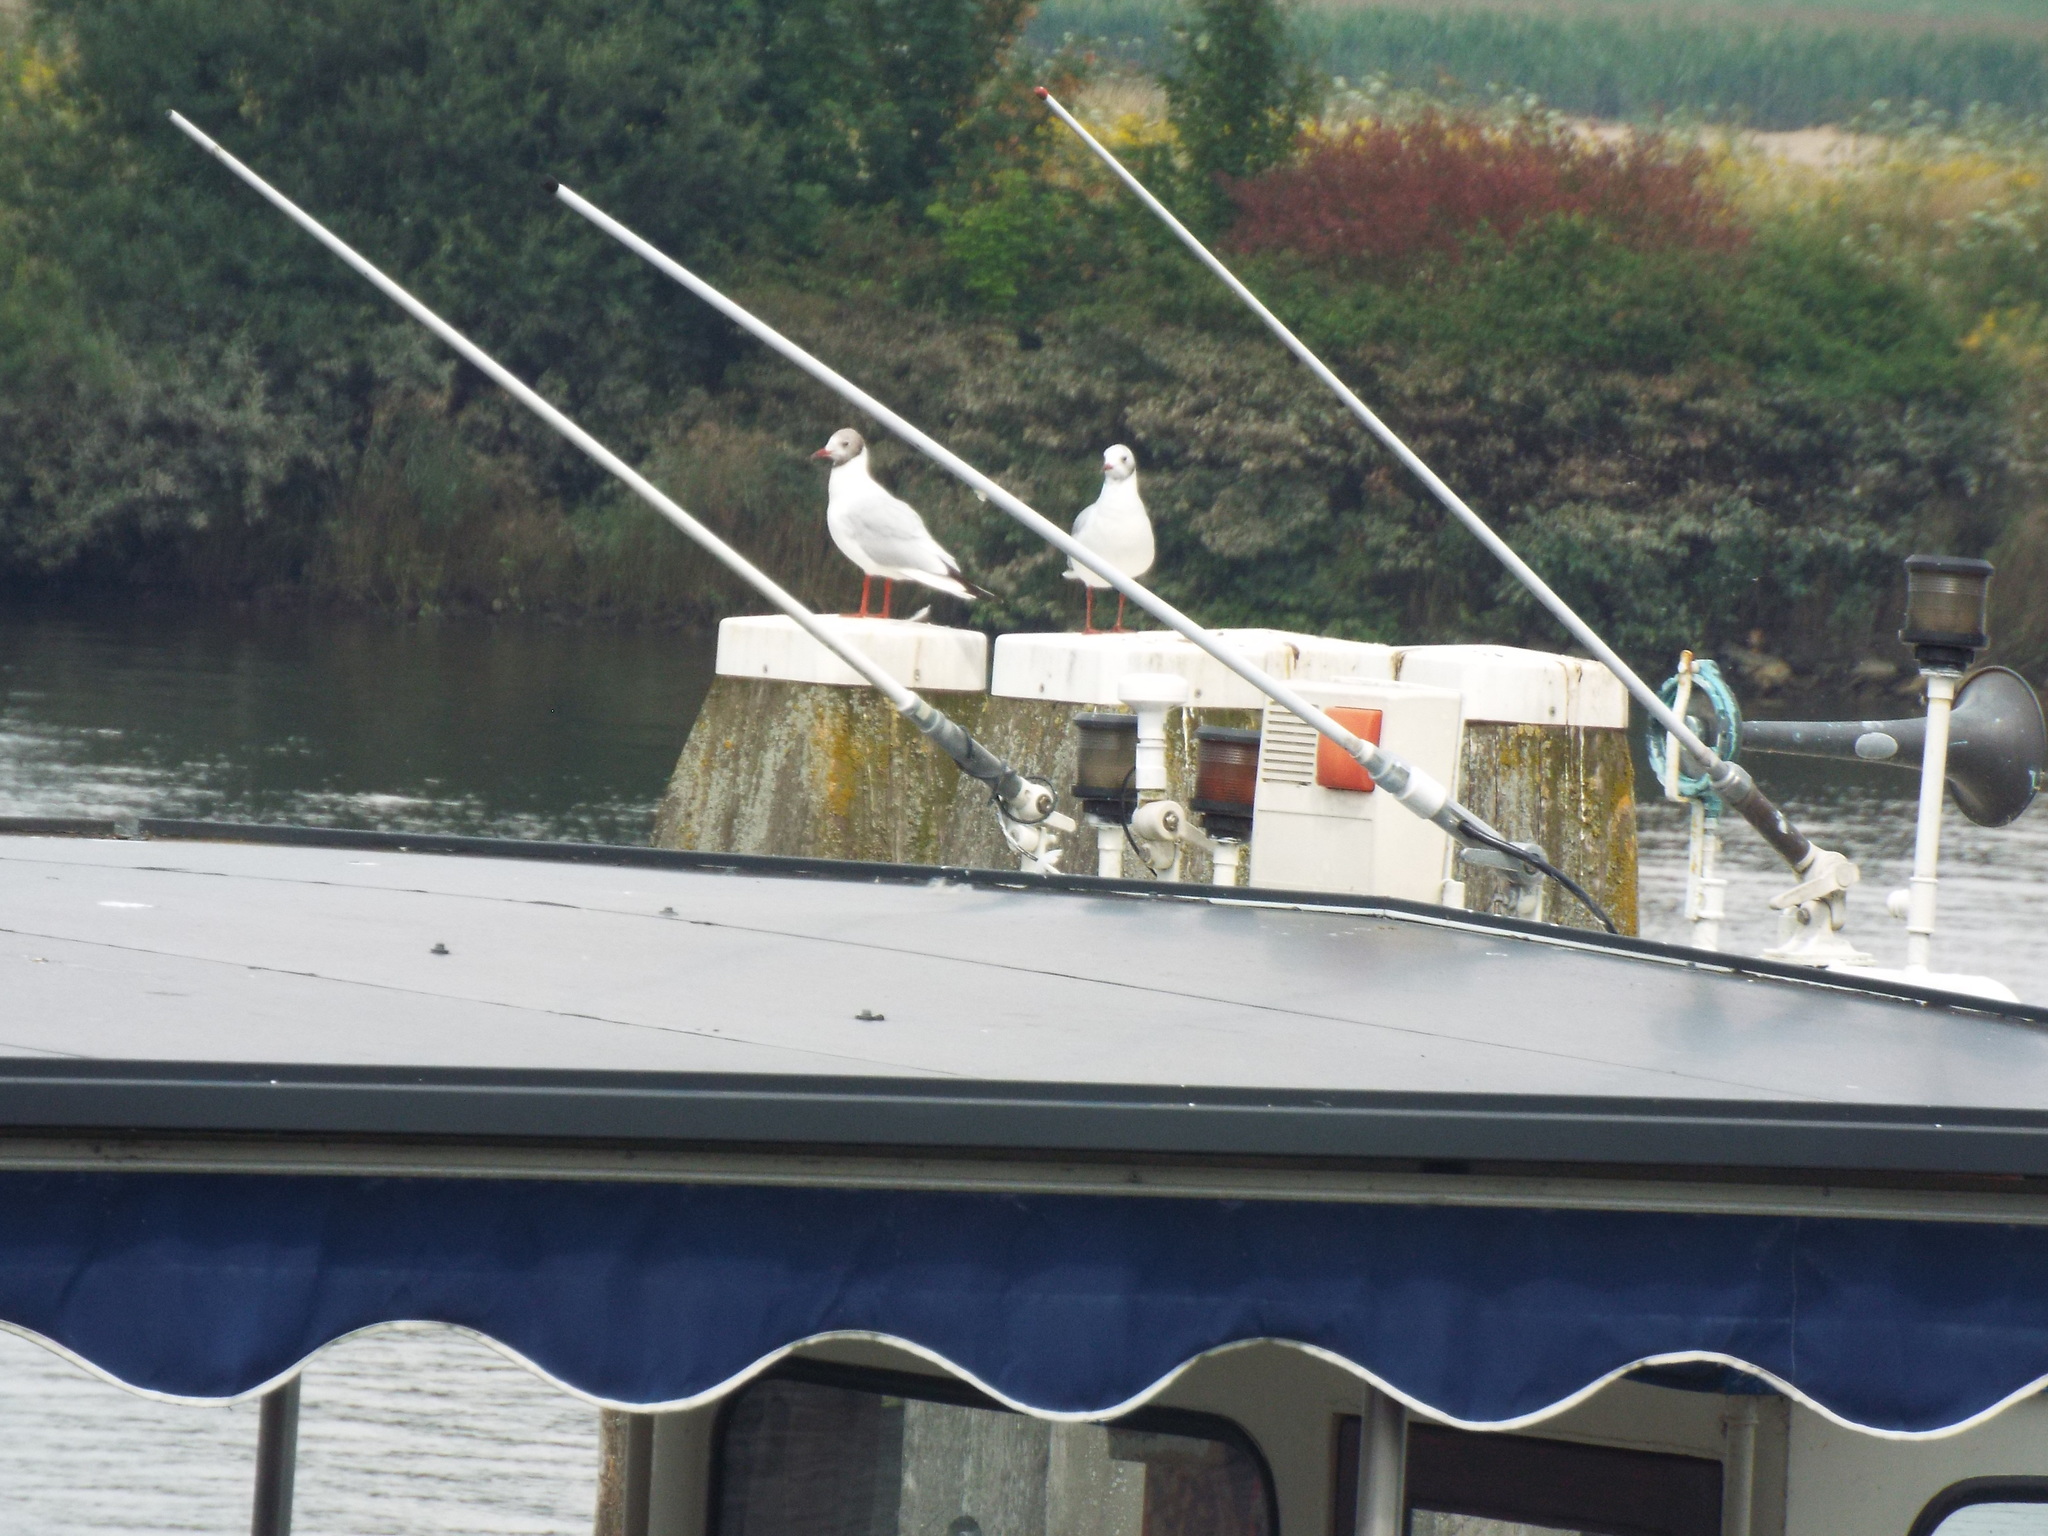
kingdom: Animalia
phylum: Chordata
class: Aves
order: Charadriiformes
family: Laridae
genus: Chroicocephalus
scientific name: Chroicocephalus ridibundus
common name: Black-headed gull
